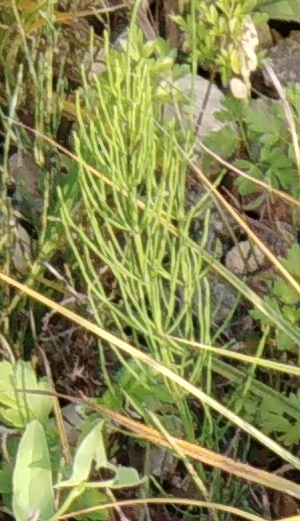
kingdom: Plantae
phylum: Tracheophyta
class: Polypodiopsida
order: Equisetales
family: Equisetaceae
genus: Equisetum
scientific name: Equisetum arvense
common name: Field horsetail
